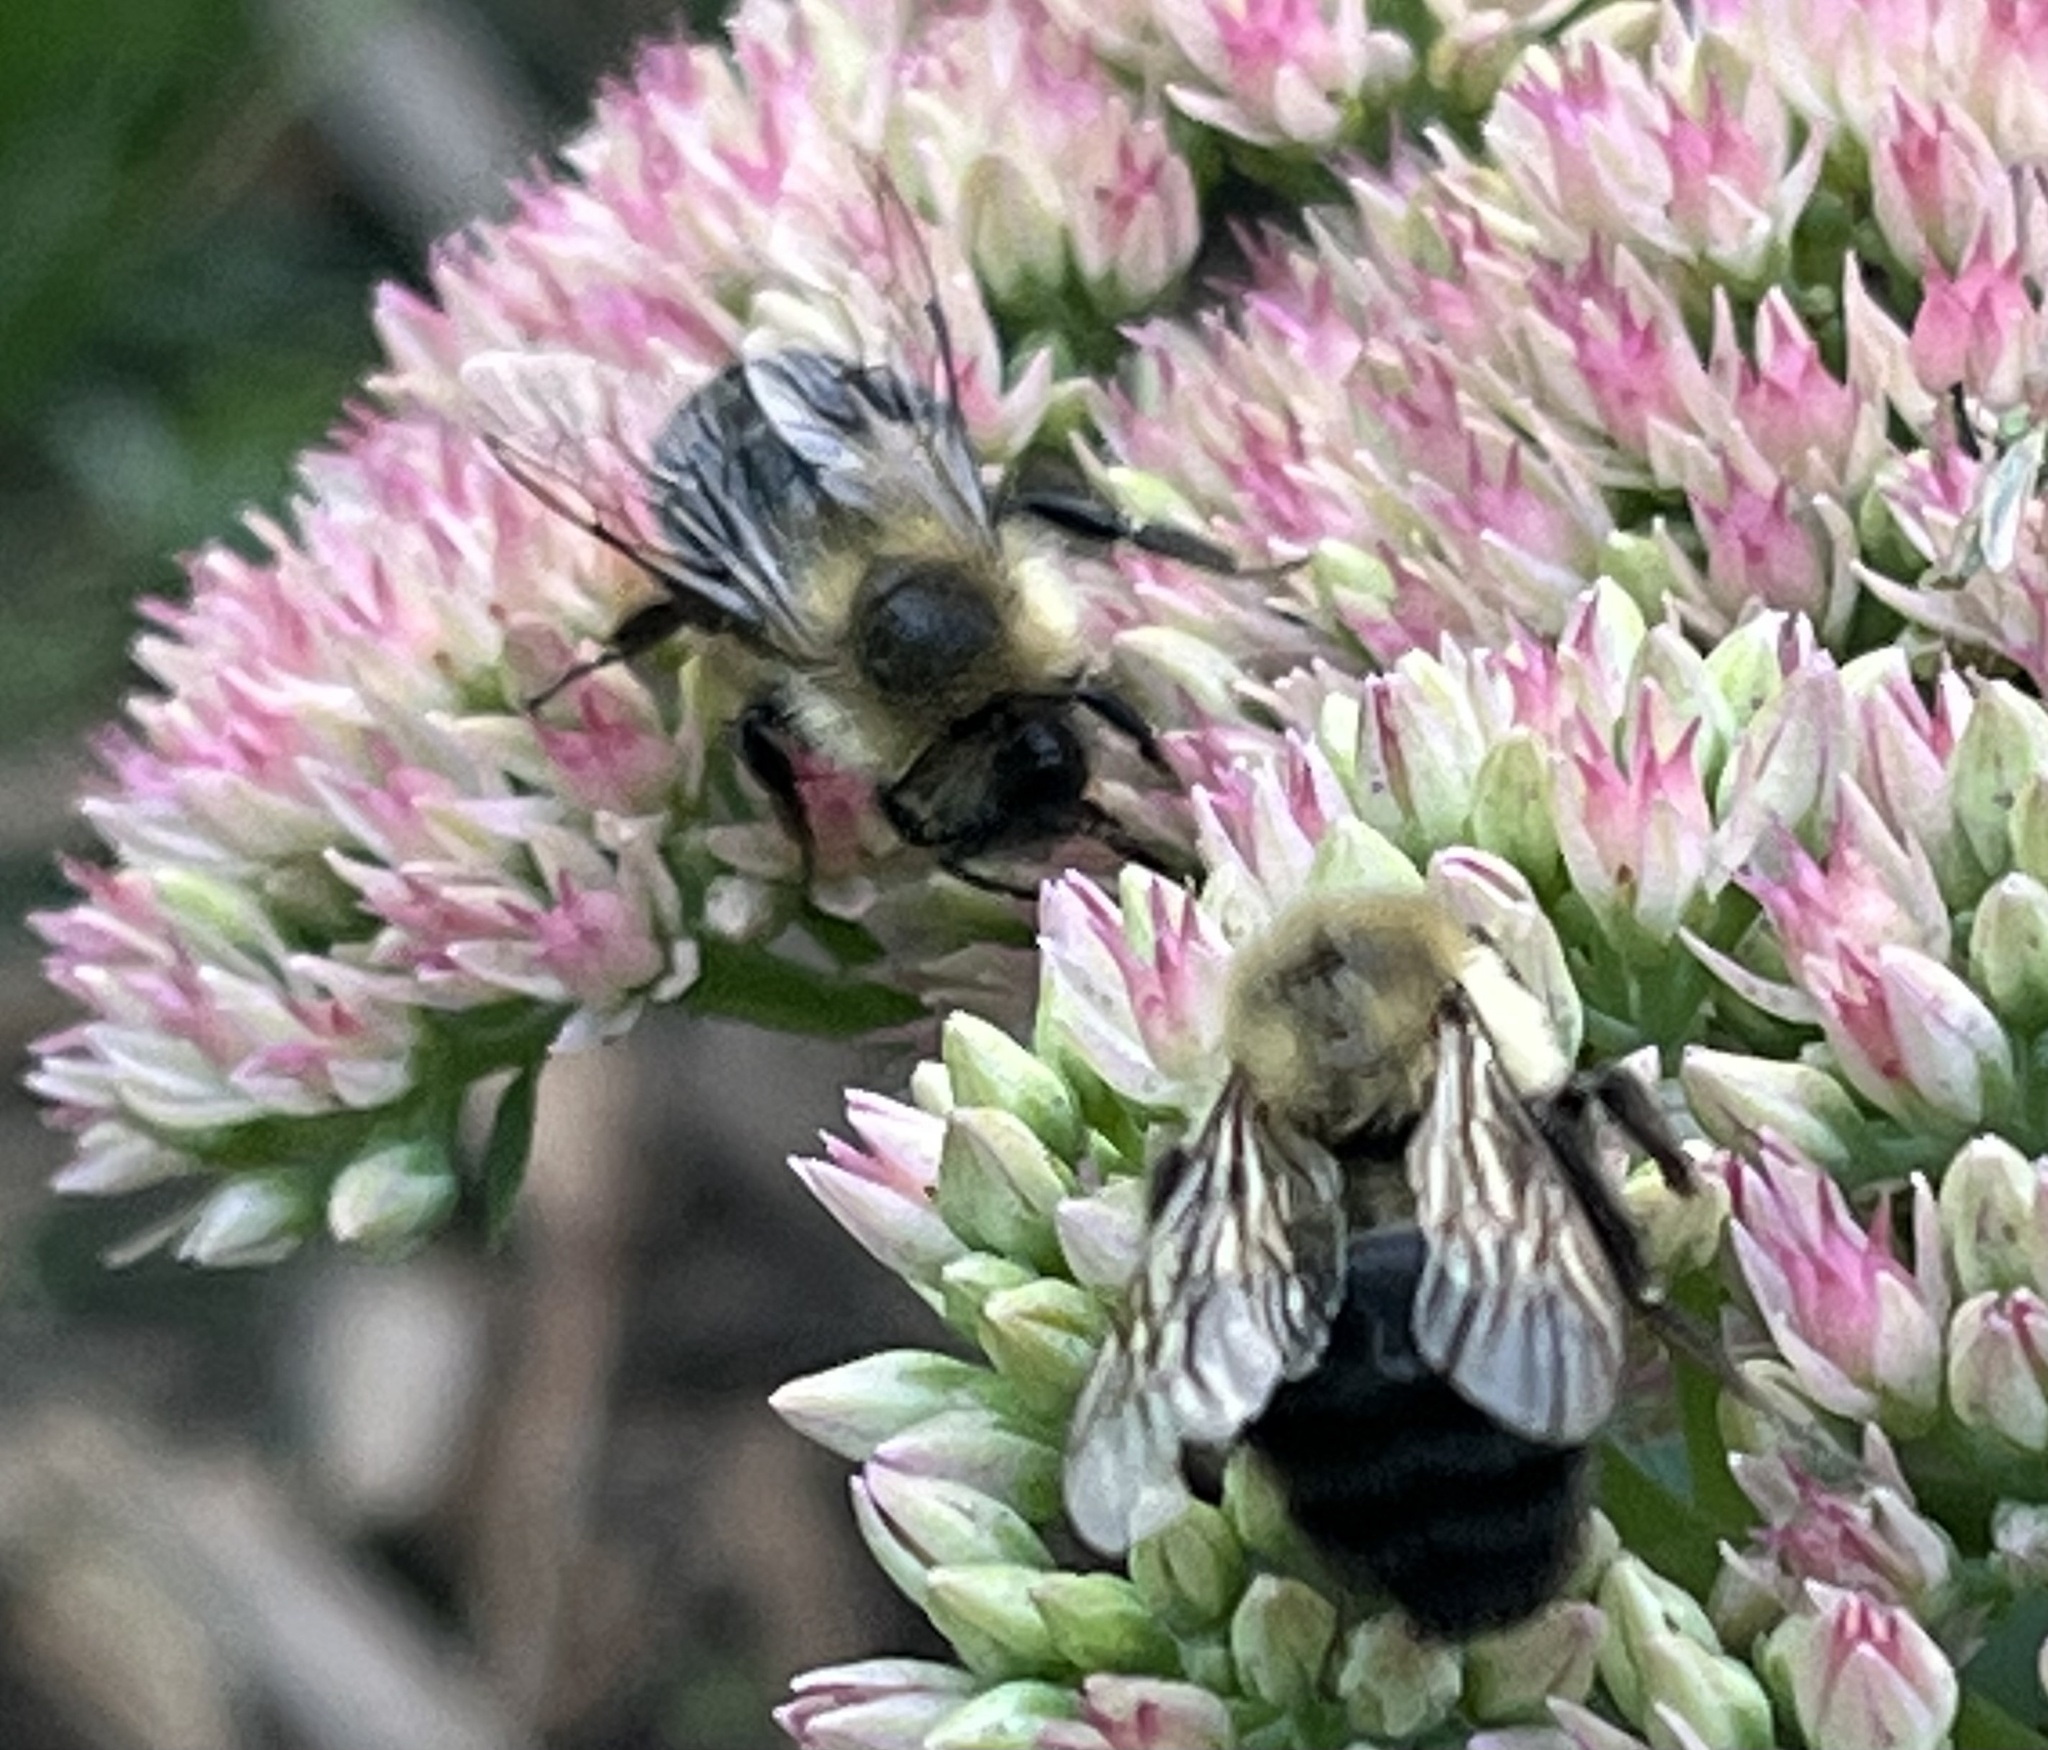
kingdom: Animalia
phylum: Arthropoda
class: Insecta
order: Hymenoptera
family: Apidae
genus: Bombus
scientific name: Bombus impatiens
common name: Common eastern bumble bee
